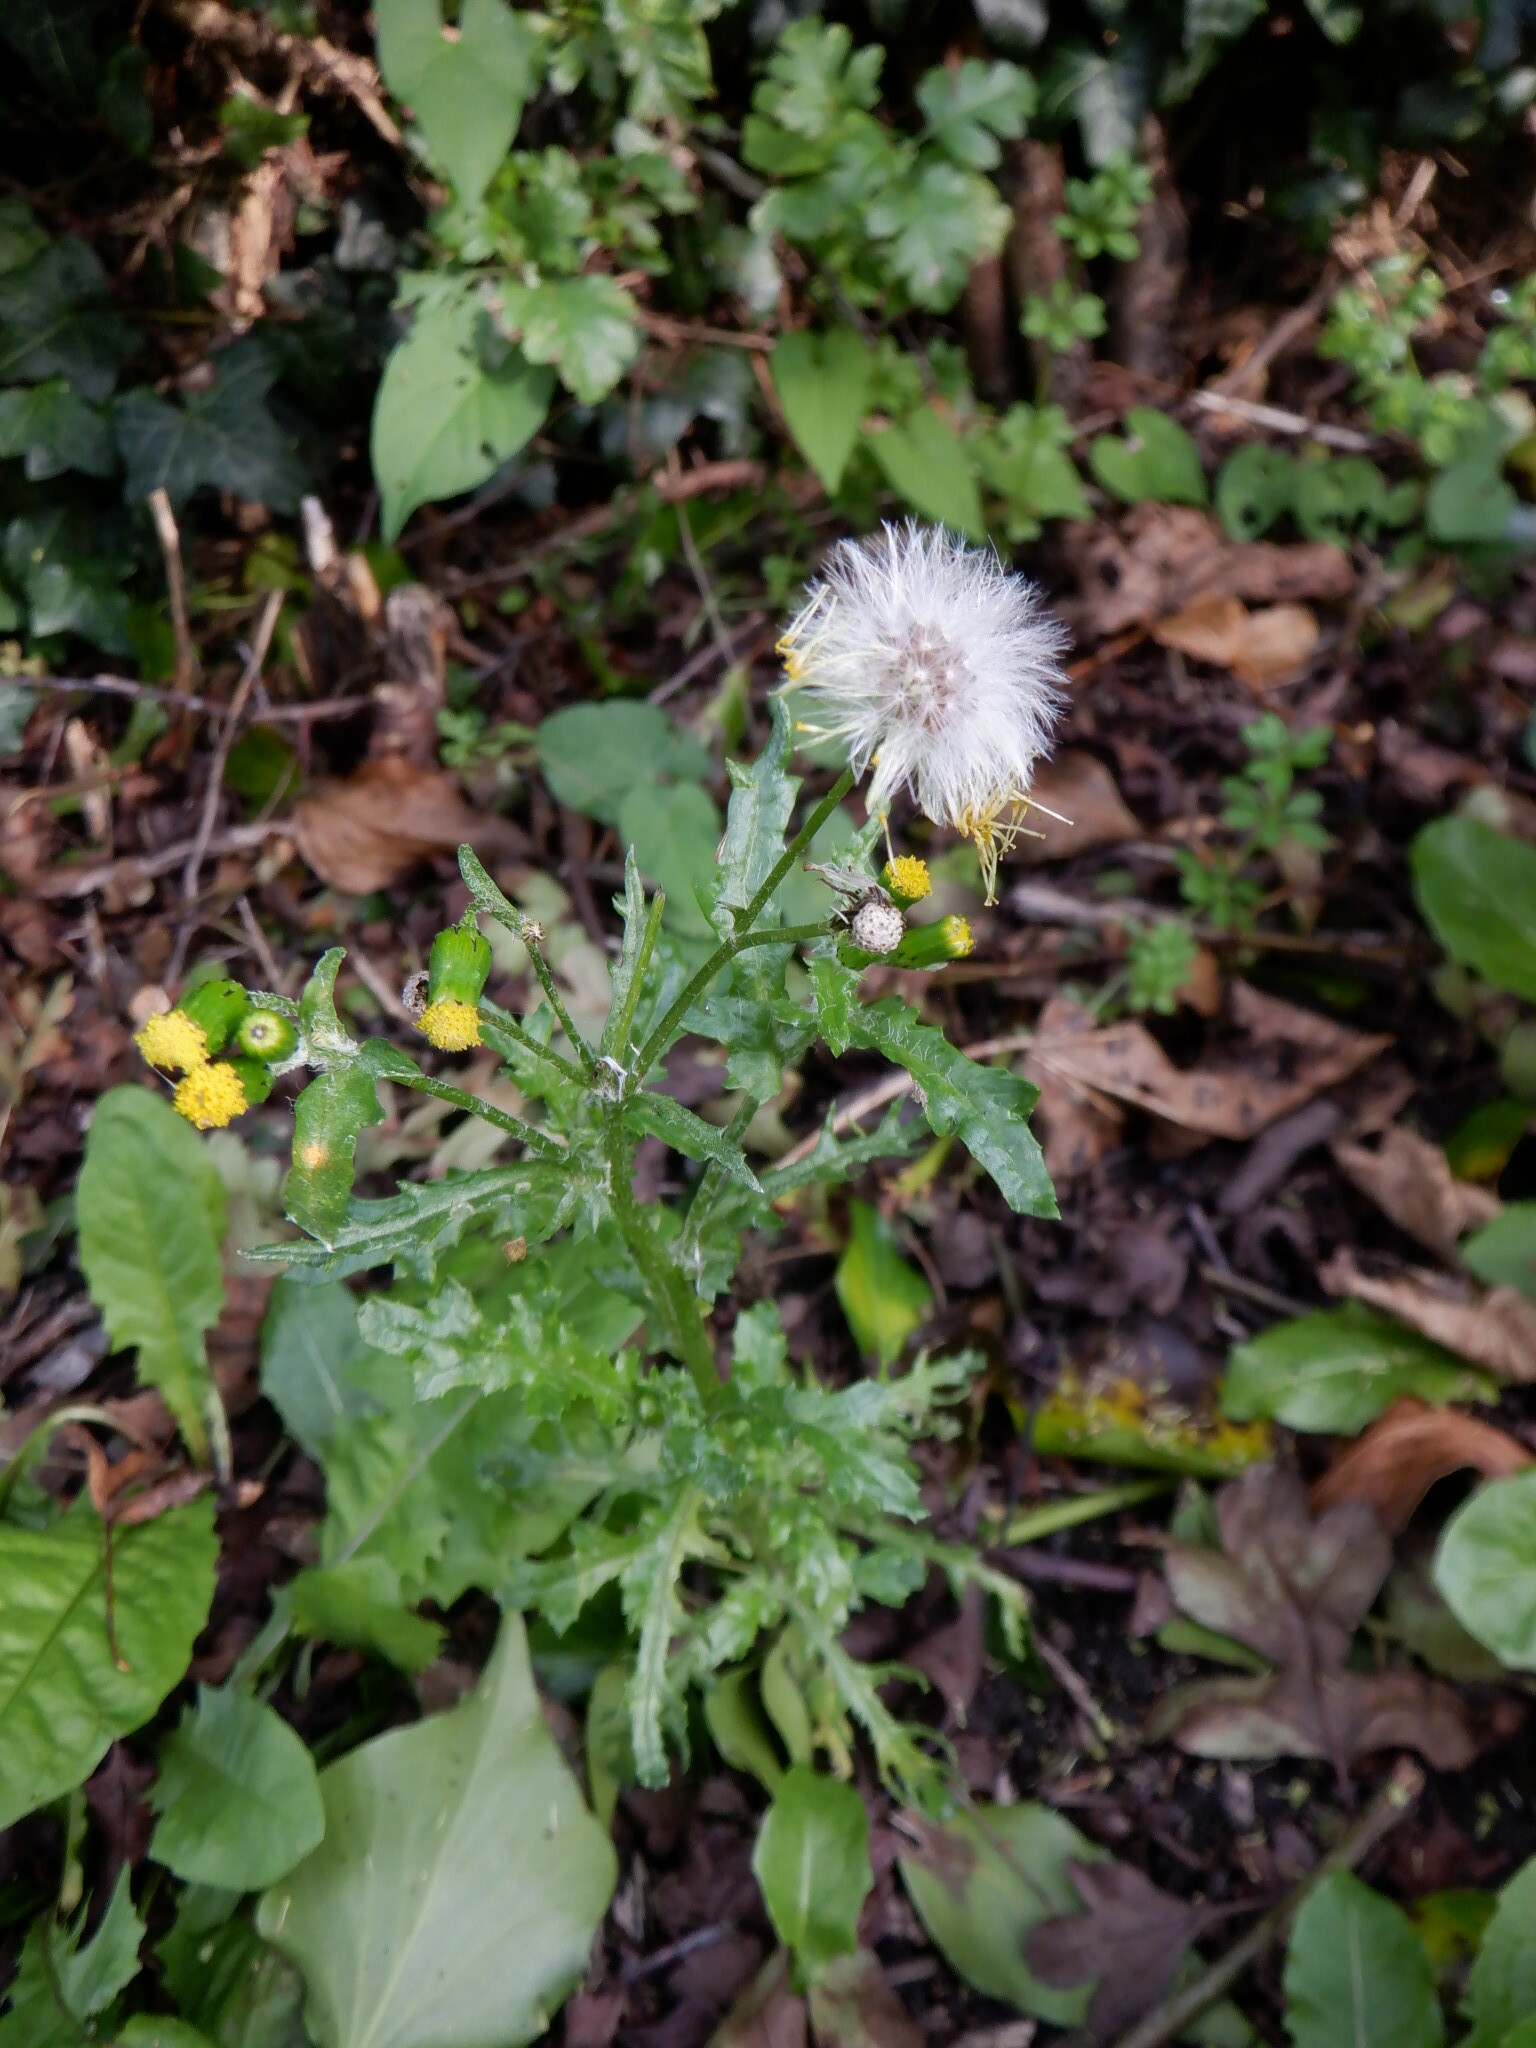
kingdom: Plantae
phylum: Tracheophyta
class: Magnoliopsida
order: Asterales
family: Asteraceae
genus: Senecio
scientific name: Senecio vulgaris
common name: Old-man-in-the-spring
